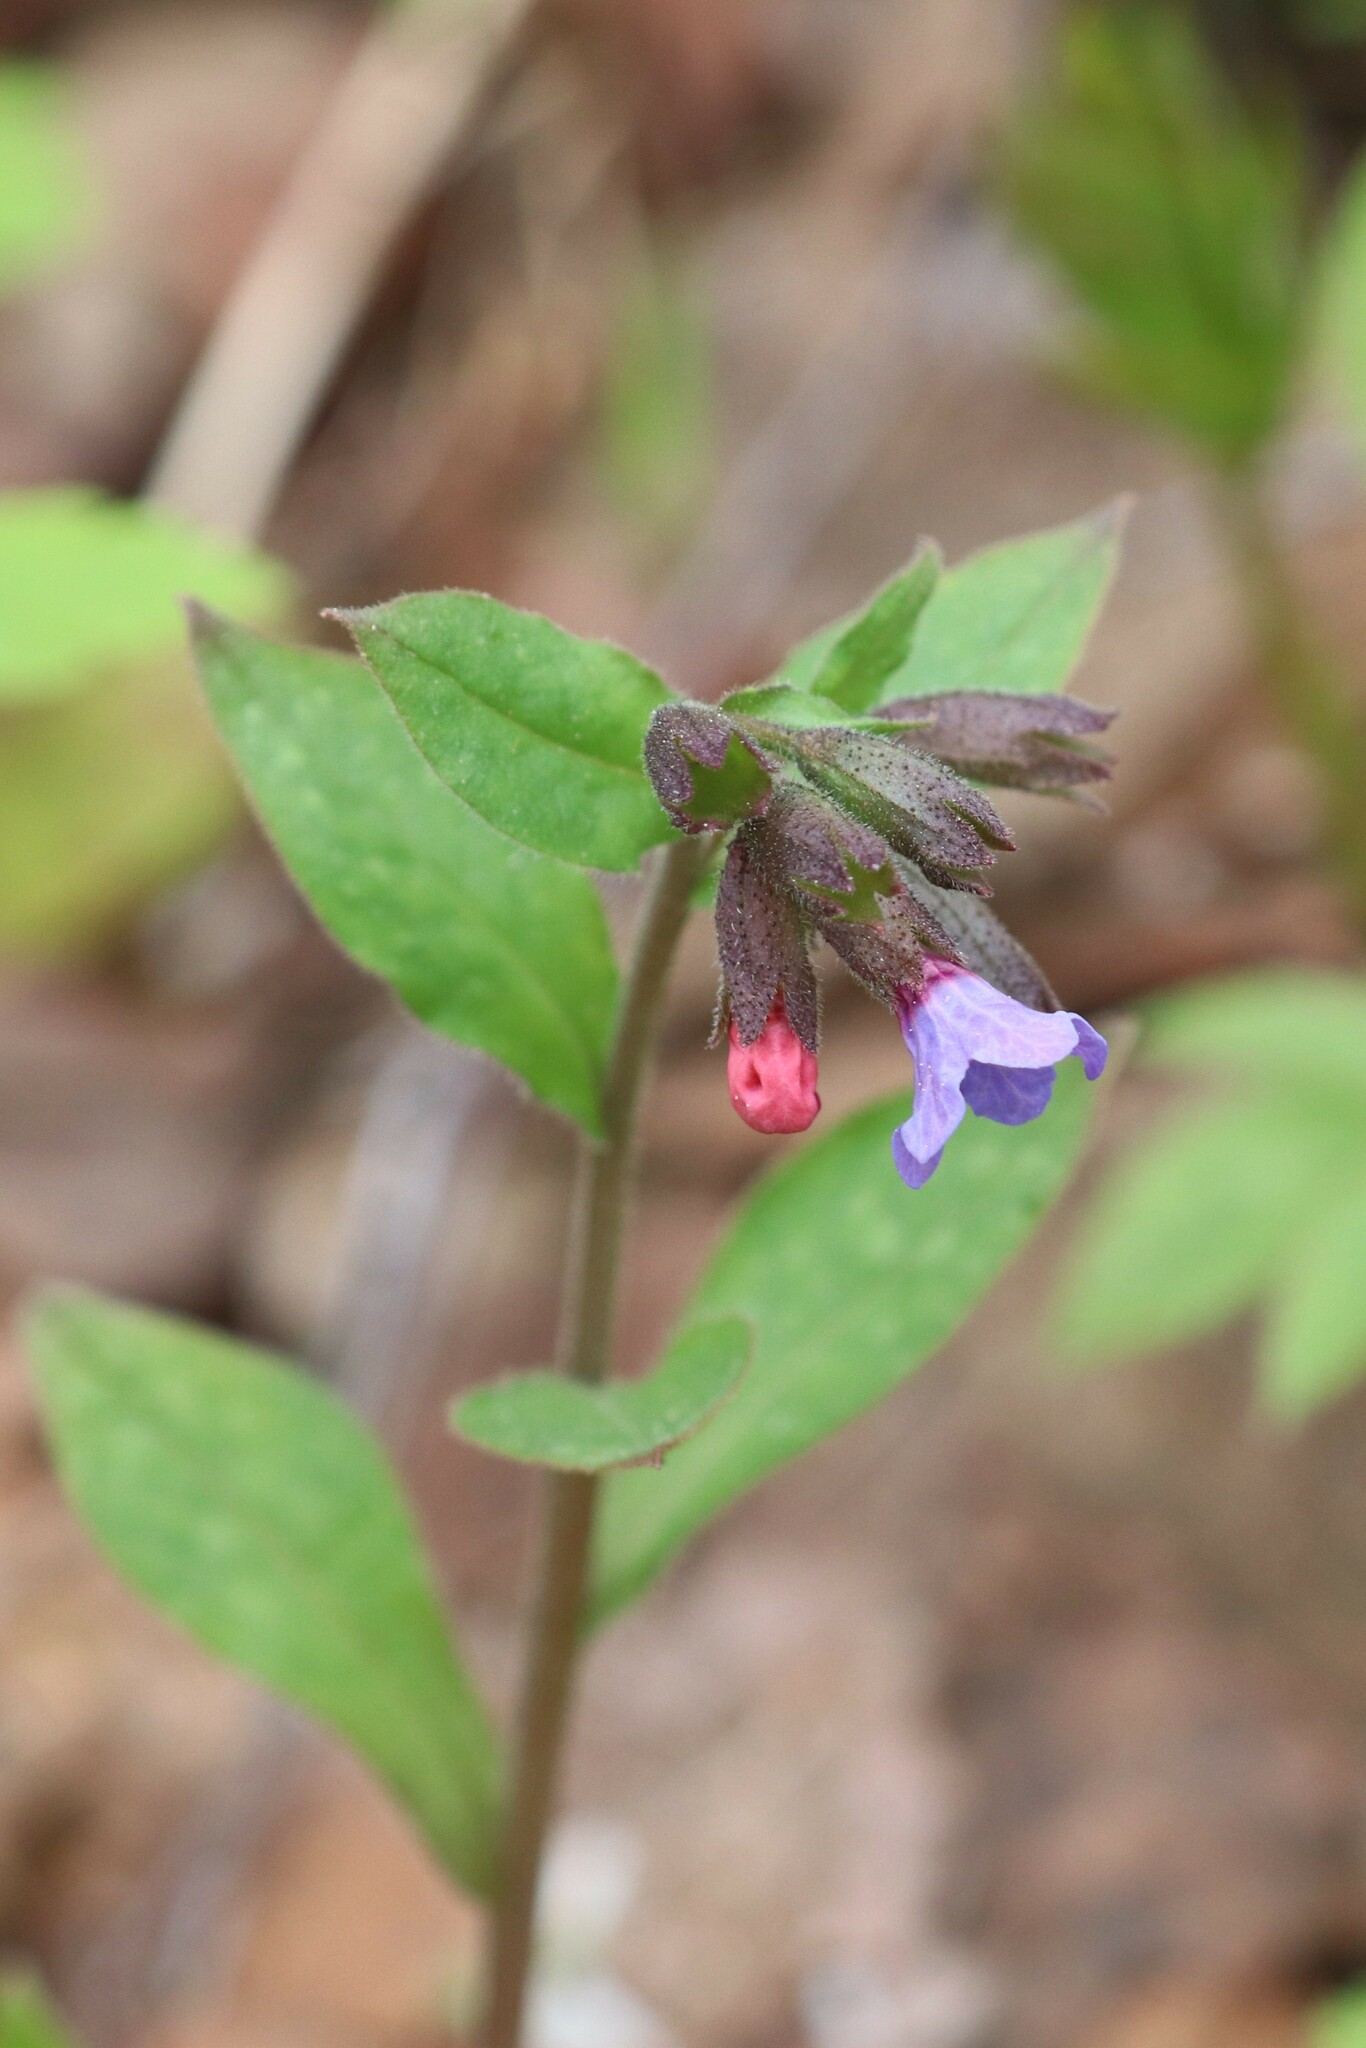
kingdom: Plantae
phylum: Tracheophyta
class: Magnoliopsida
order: Boraginales
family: Boraginaceae
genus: Pulmonaria
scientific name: Pulmonaria obscura
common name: Suffolk lungwort
